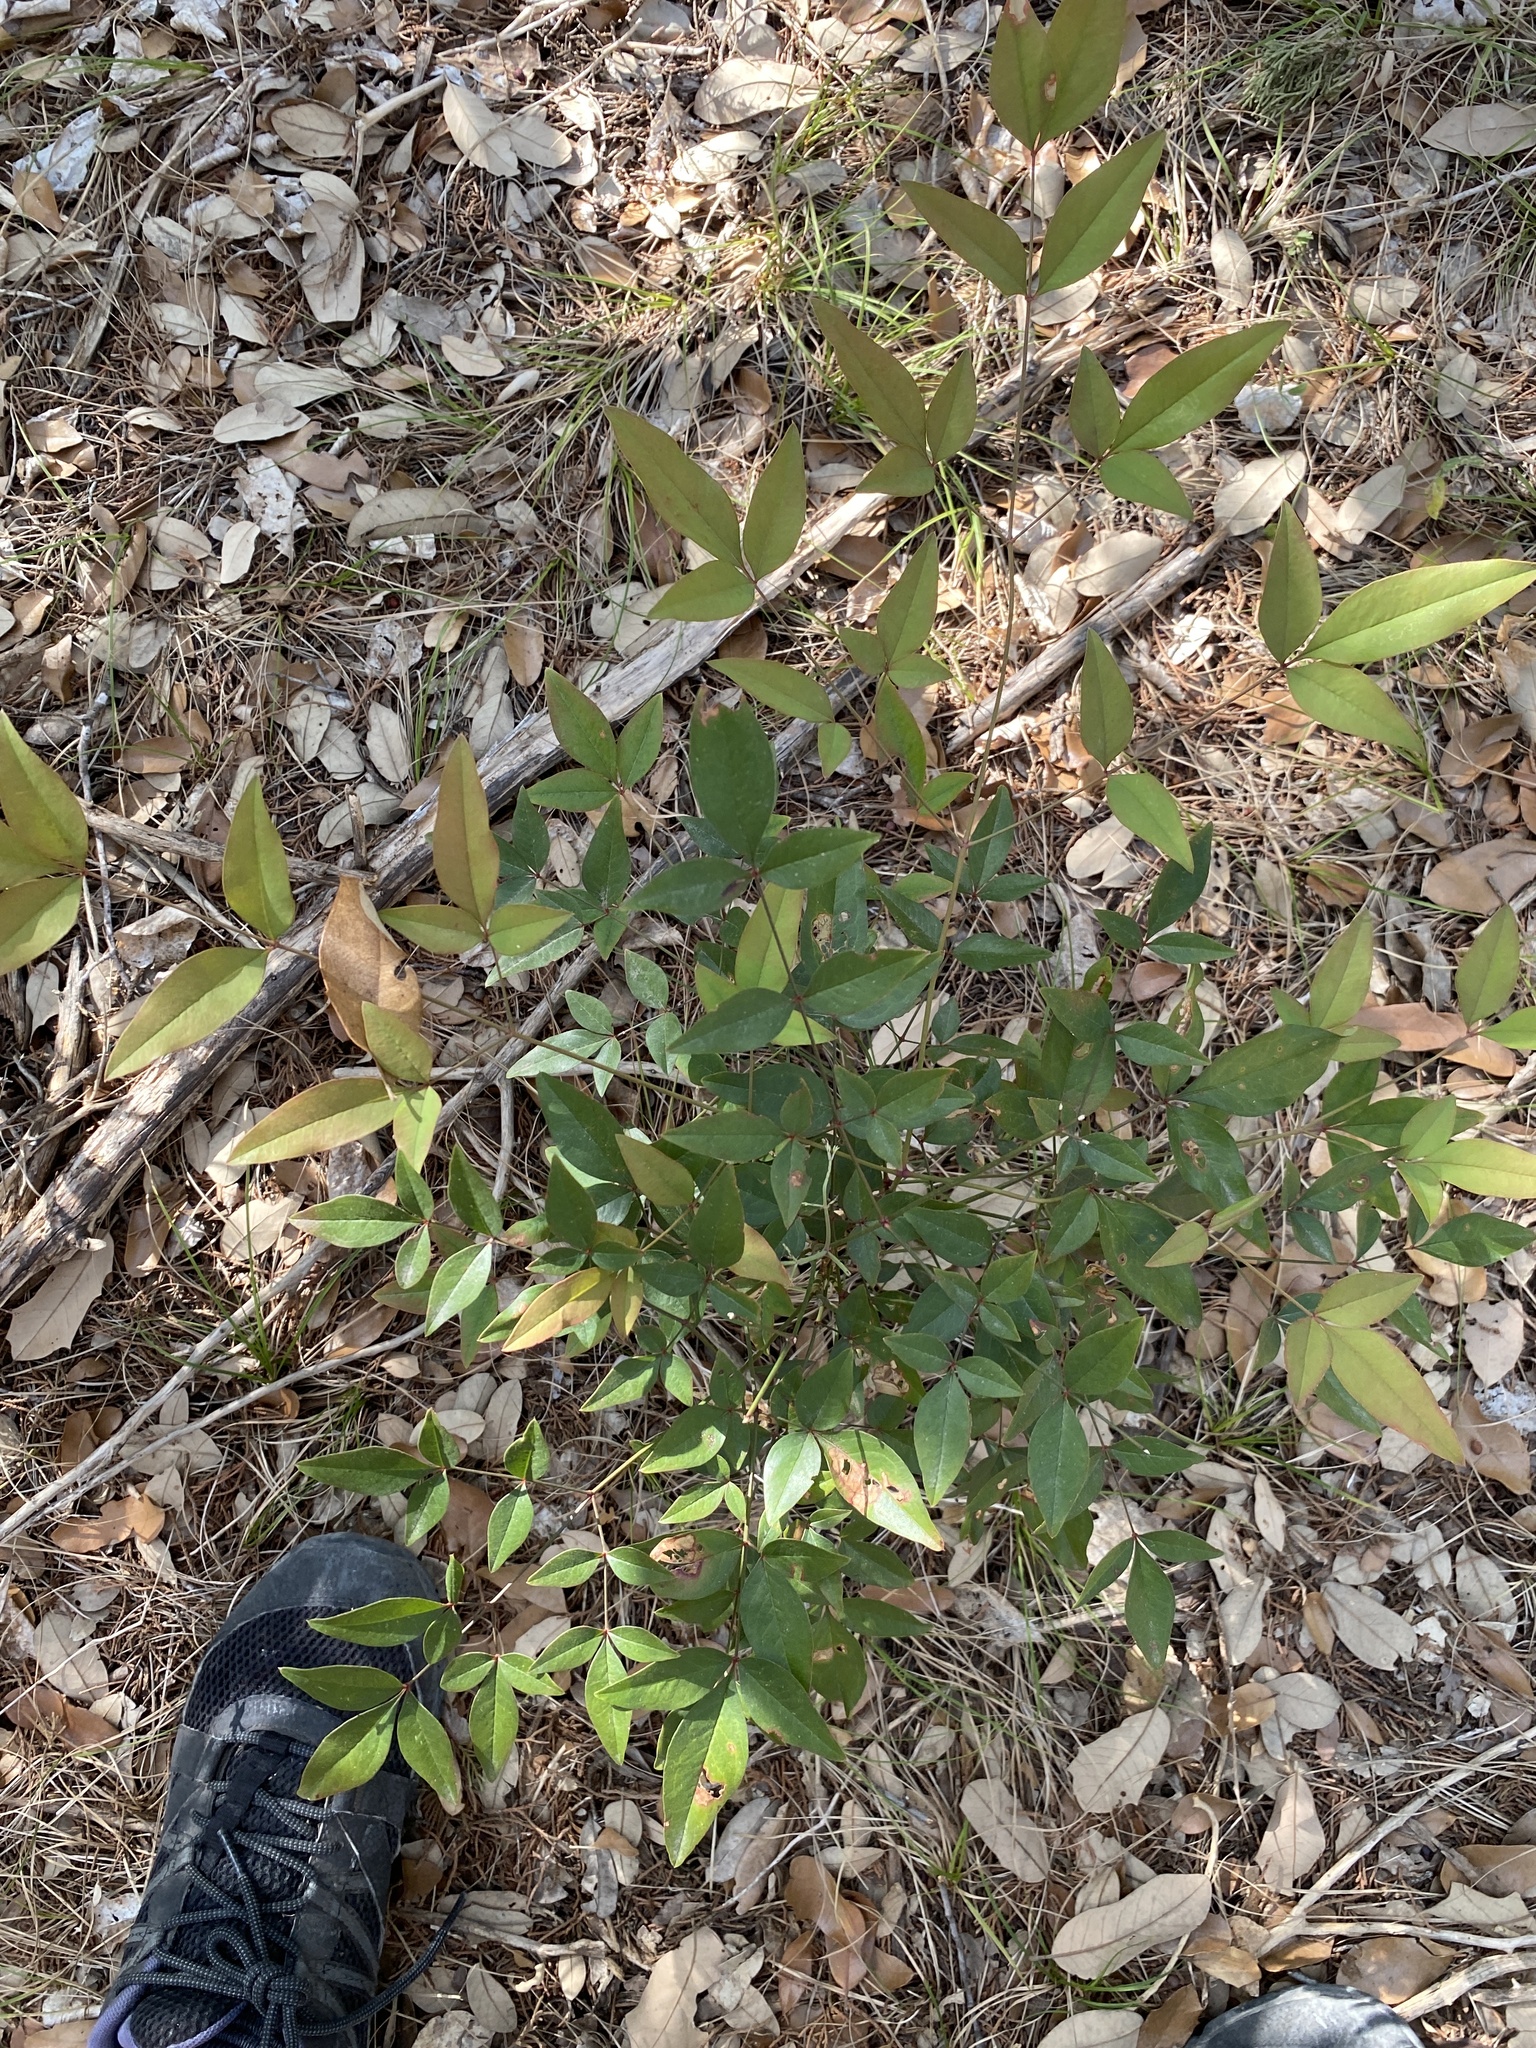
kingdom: Plantae
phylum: Tracheophyta
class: Magnoliopsida
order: Ranunculales
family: Berberidaceae
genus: Nandina
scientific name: Nandina domestica
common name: Sacred bamboo
